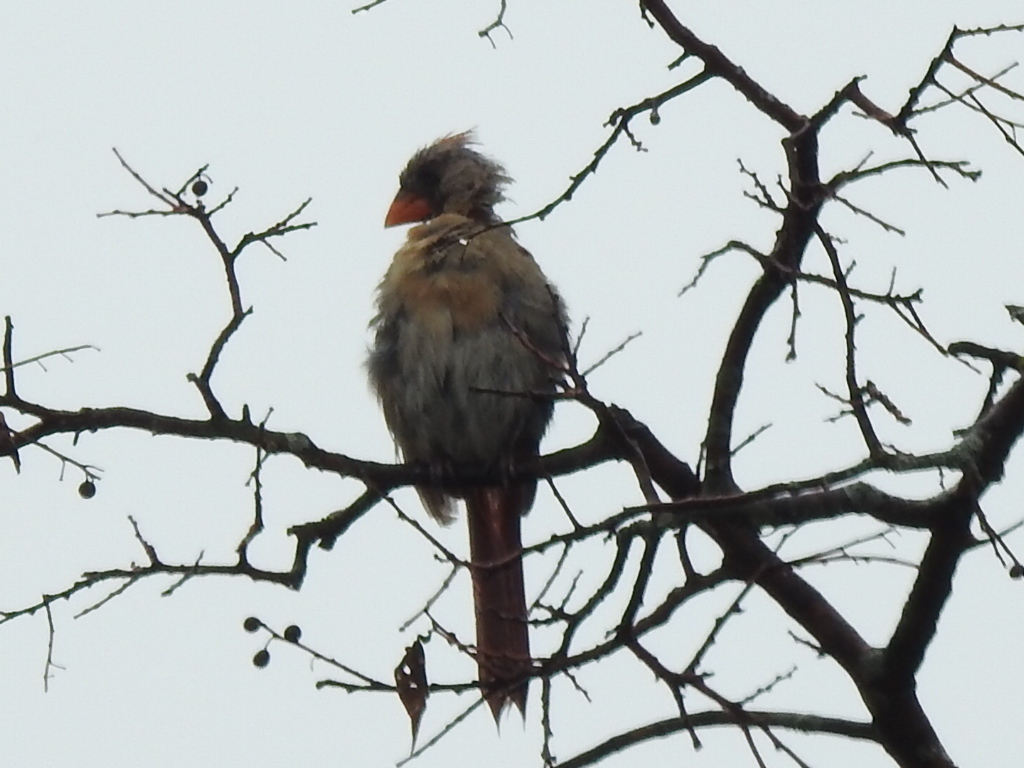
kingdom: Animalia
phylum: Chordata
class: Aves
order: Passeriformes
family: Cardinalidae
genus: Cardinalis
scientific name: Cardinalis cardinalis
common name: Northern cardinal
